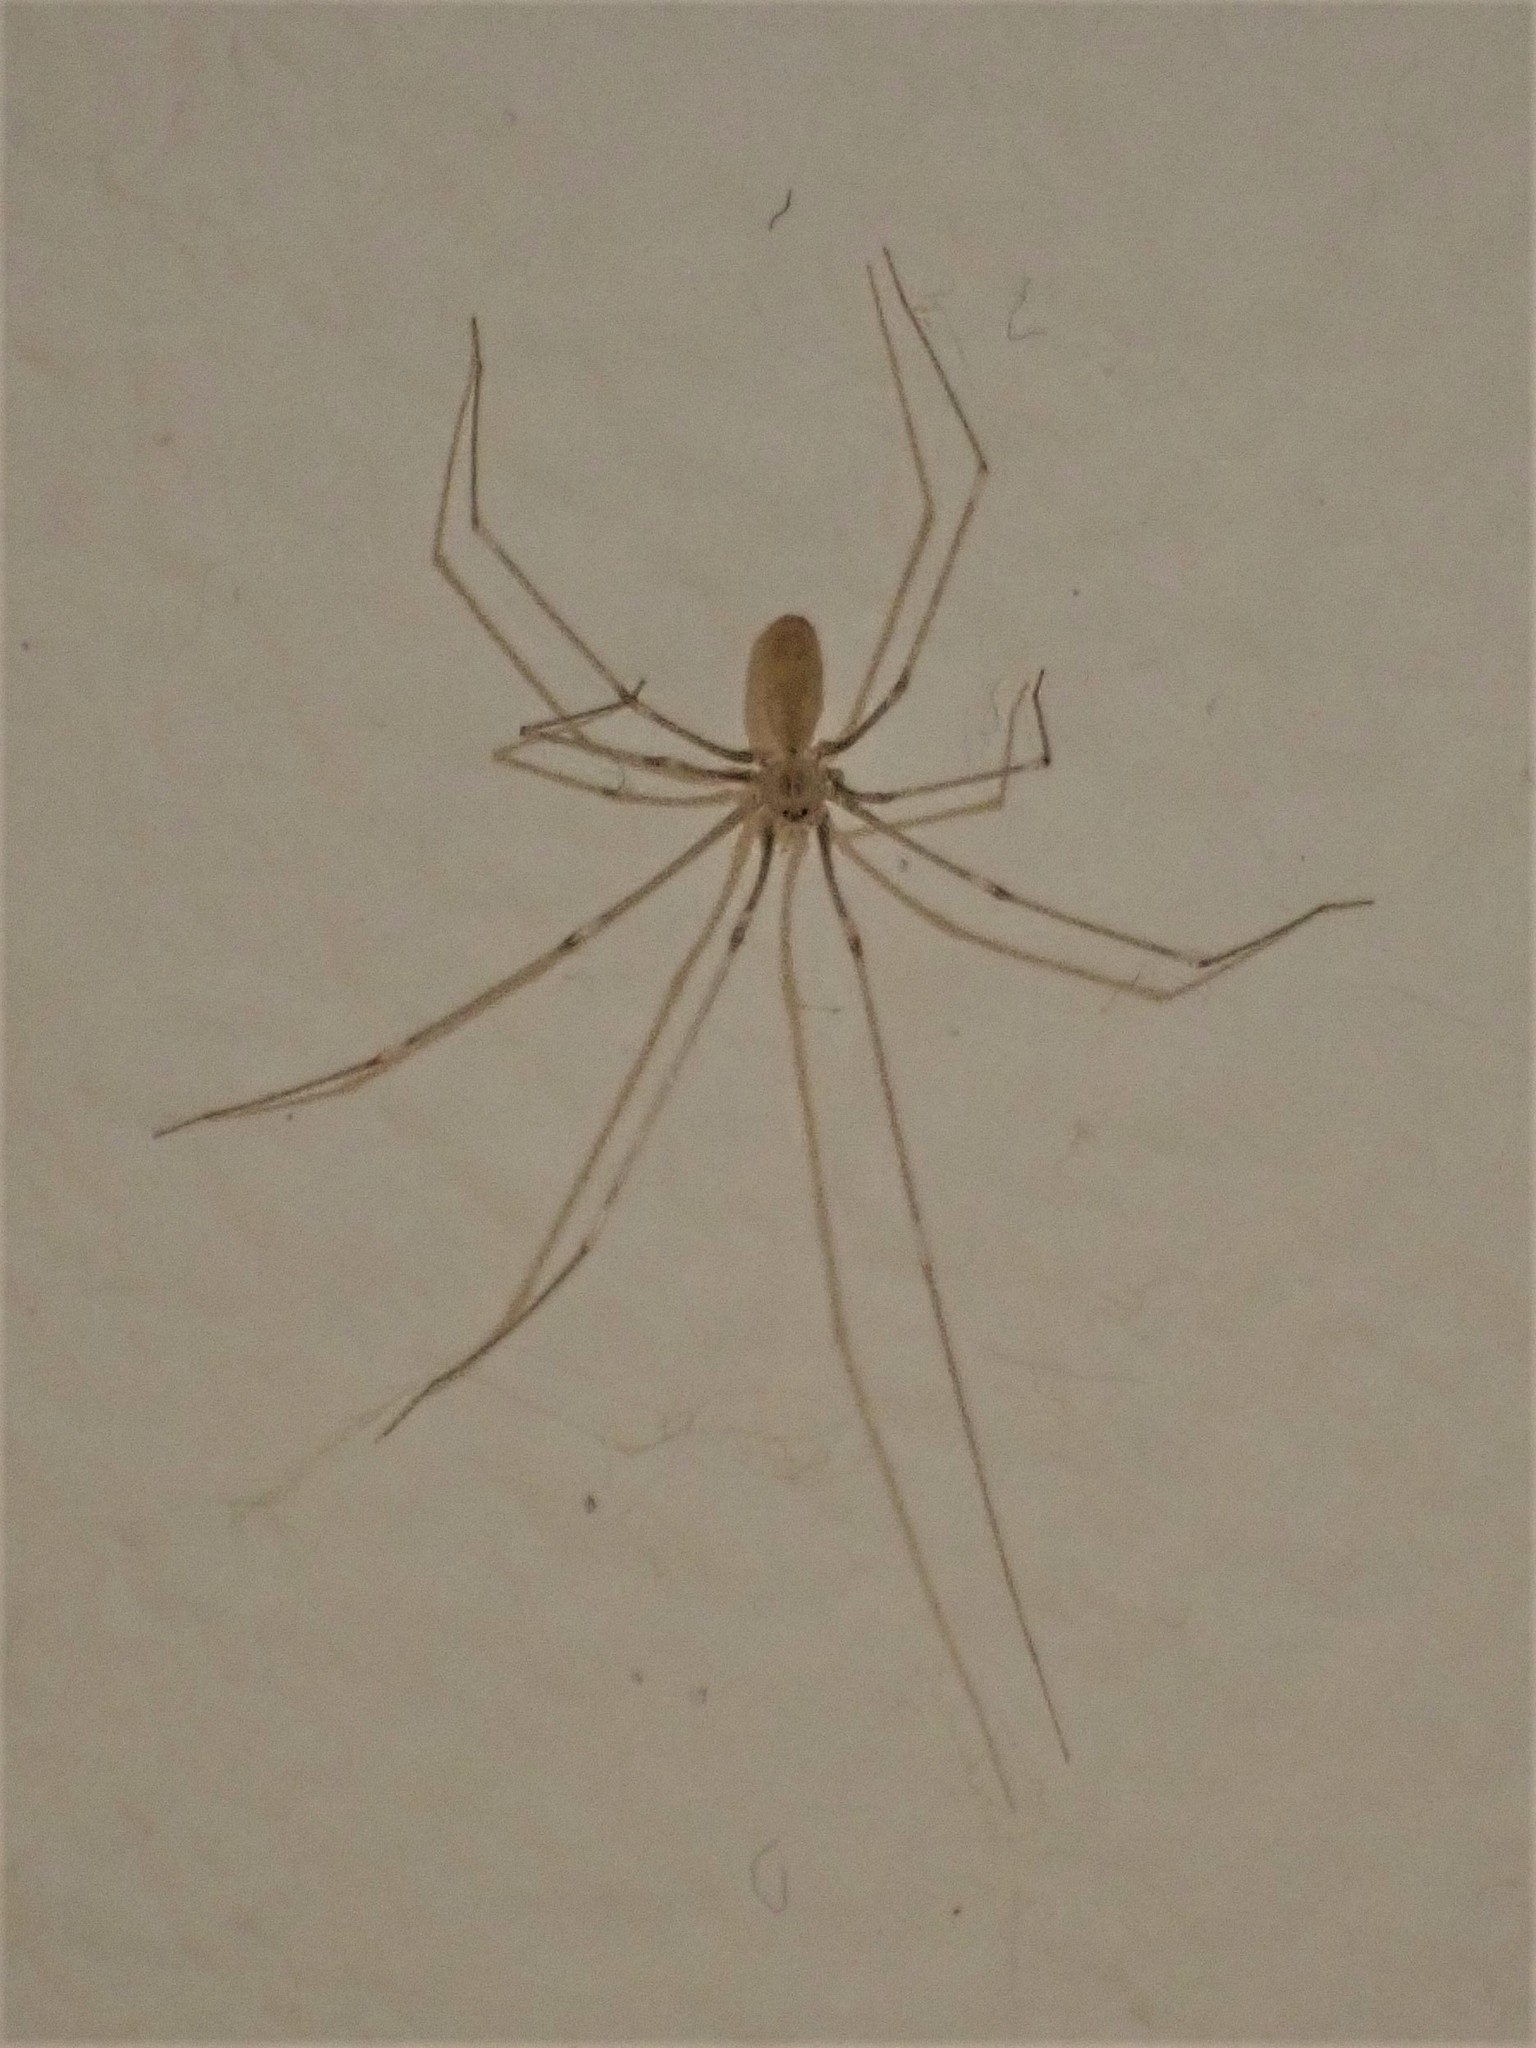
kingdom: Animalia
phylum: Arthropoda
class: Arachnida
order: Araneae
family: Pholcidae
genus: Pholcus
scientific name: Pholcus phalangioides
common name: Longbodied cellar spider
